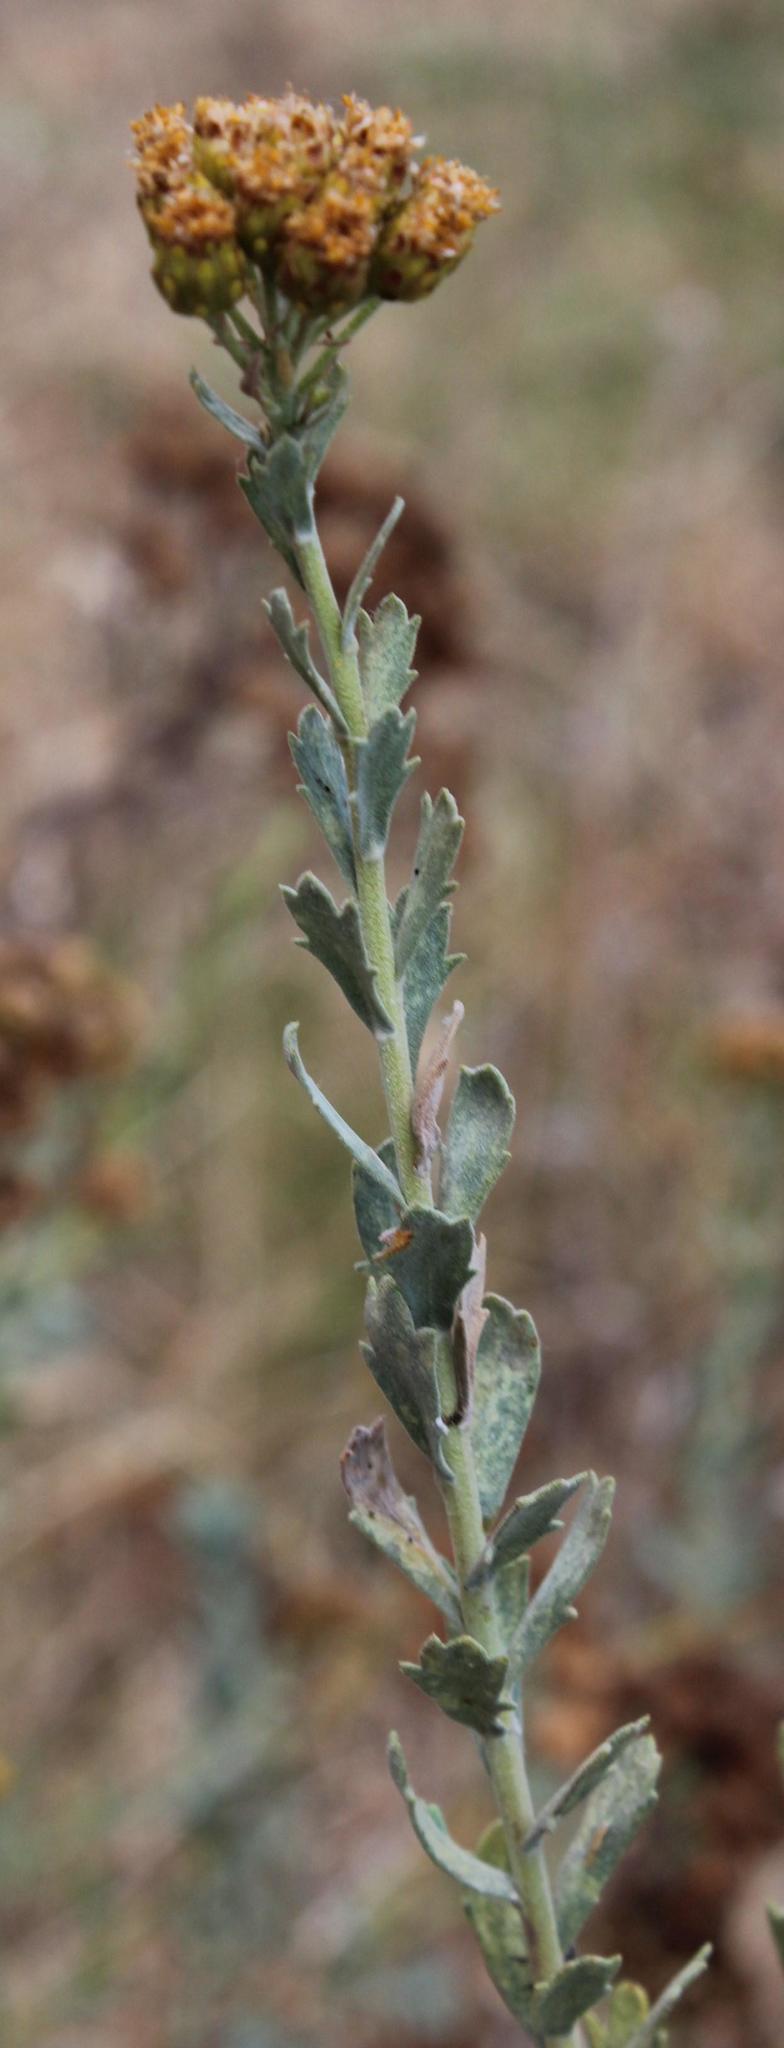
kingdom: Plantae
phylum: Tracheophyta
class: Magnoliopsida
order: Asterales
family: Asteraceae
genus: Athanasia
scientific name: Athanasia trifurcata
